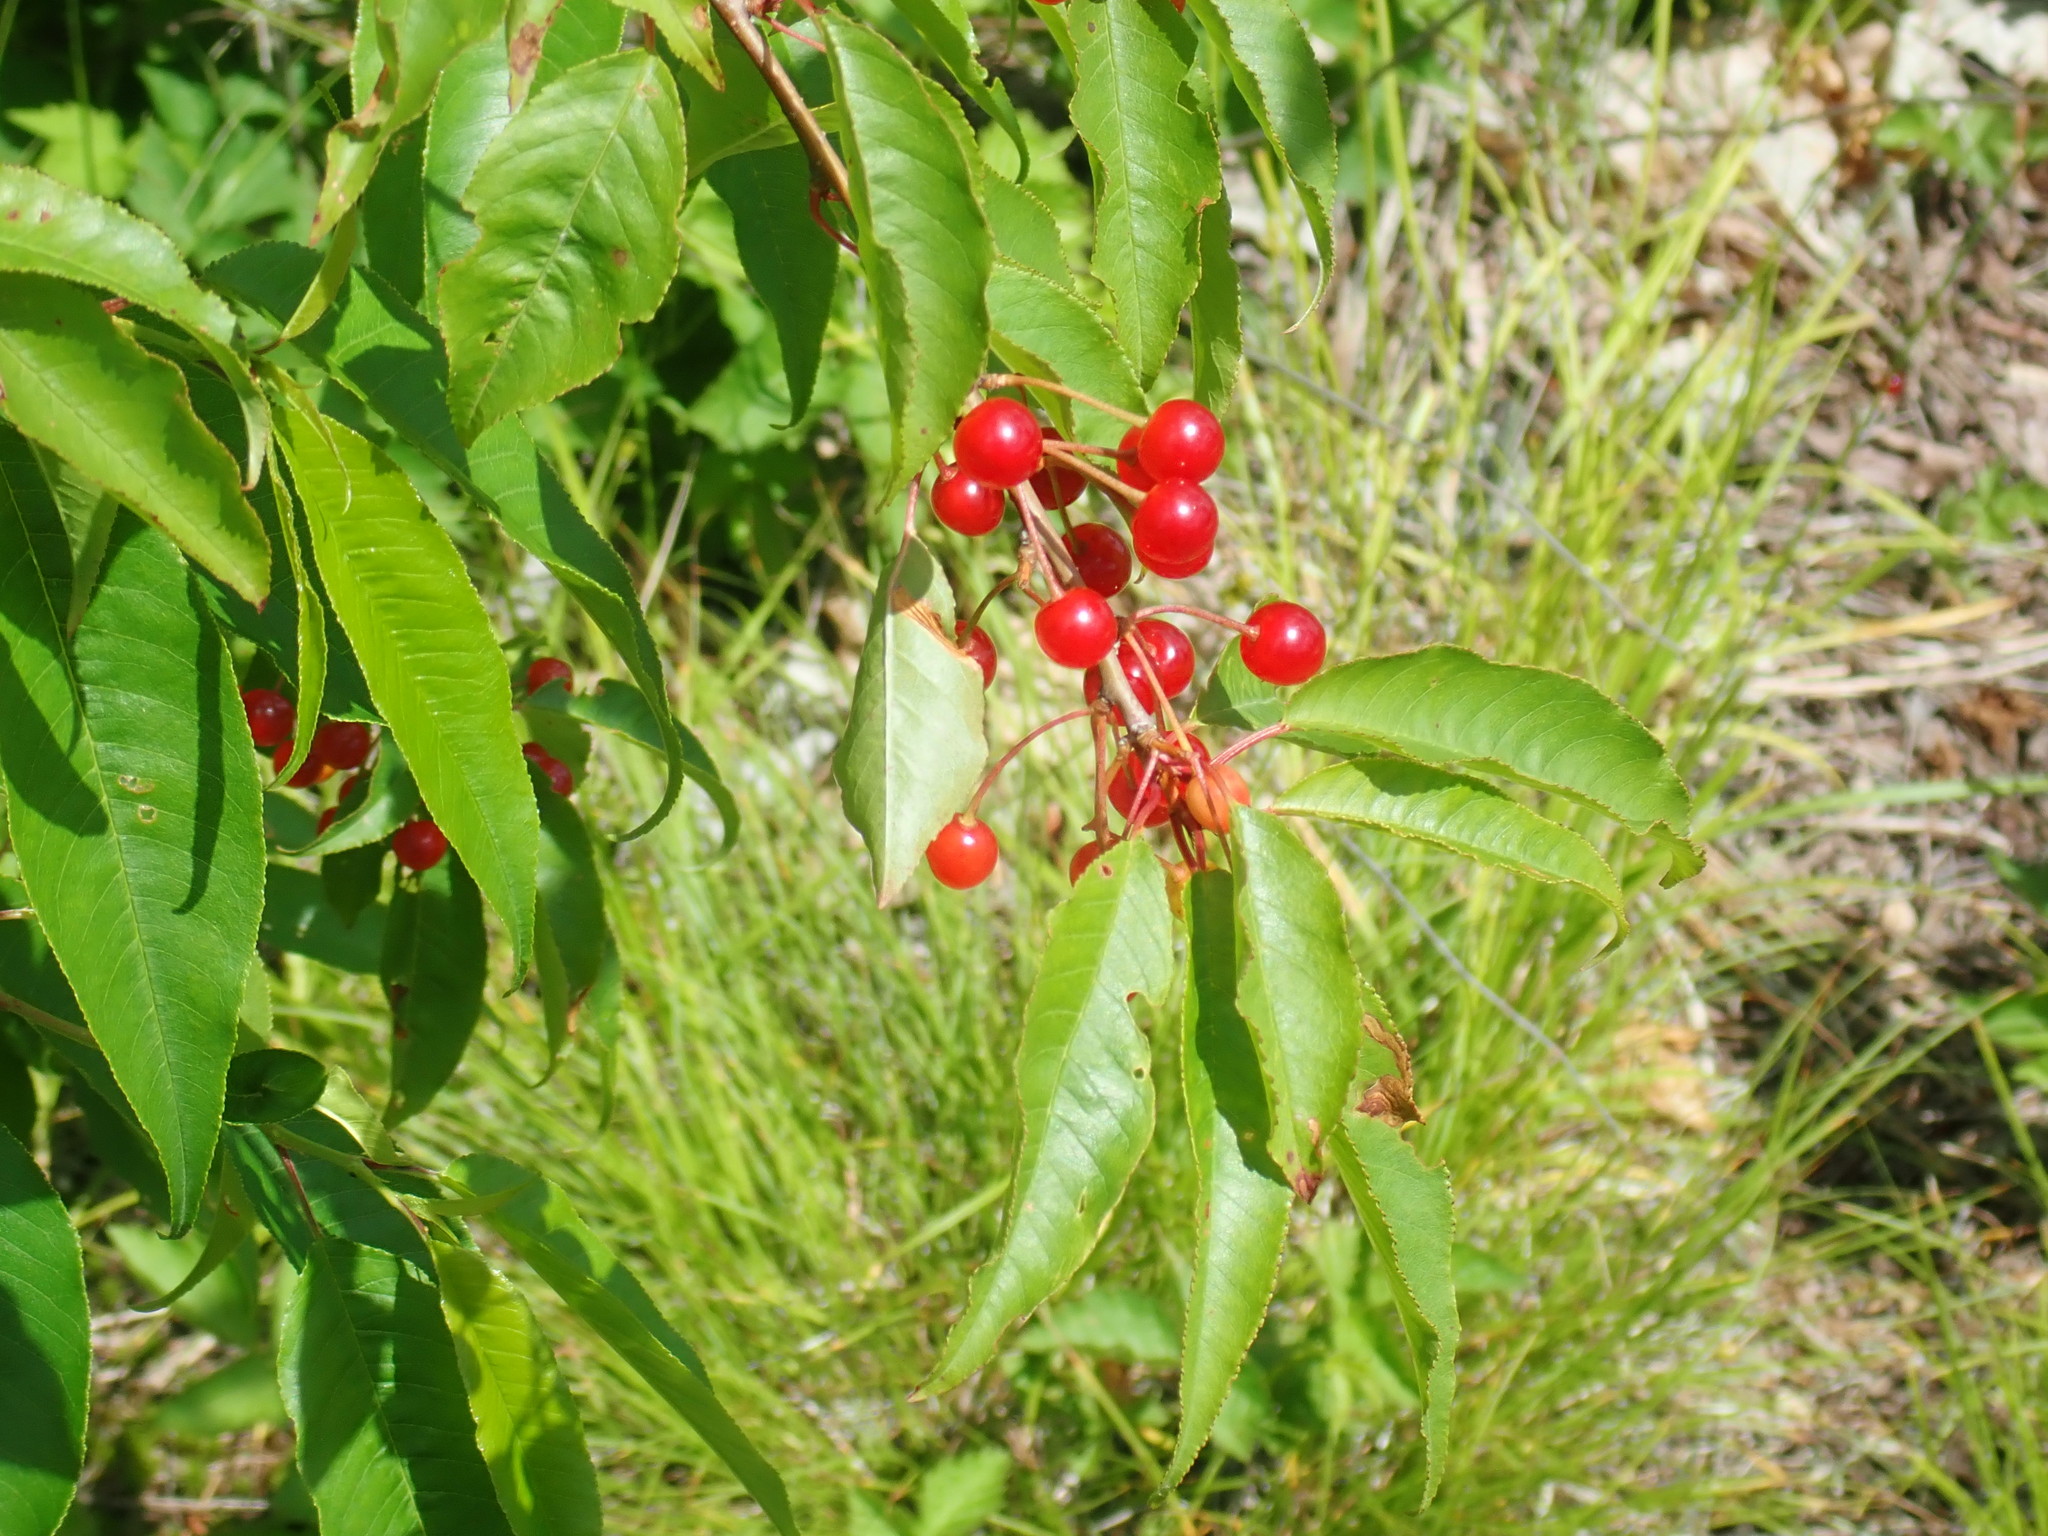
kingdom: Plantae
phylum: Tracheophyta
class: Magnoliopsida
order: Rosales
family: Rosaceae
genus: Prunus
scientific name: Prunus pensylvanica
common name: Pin cherry
